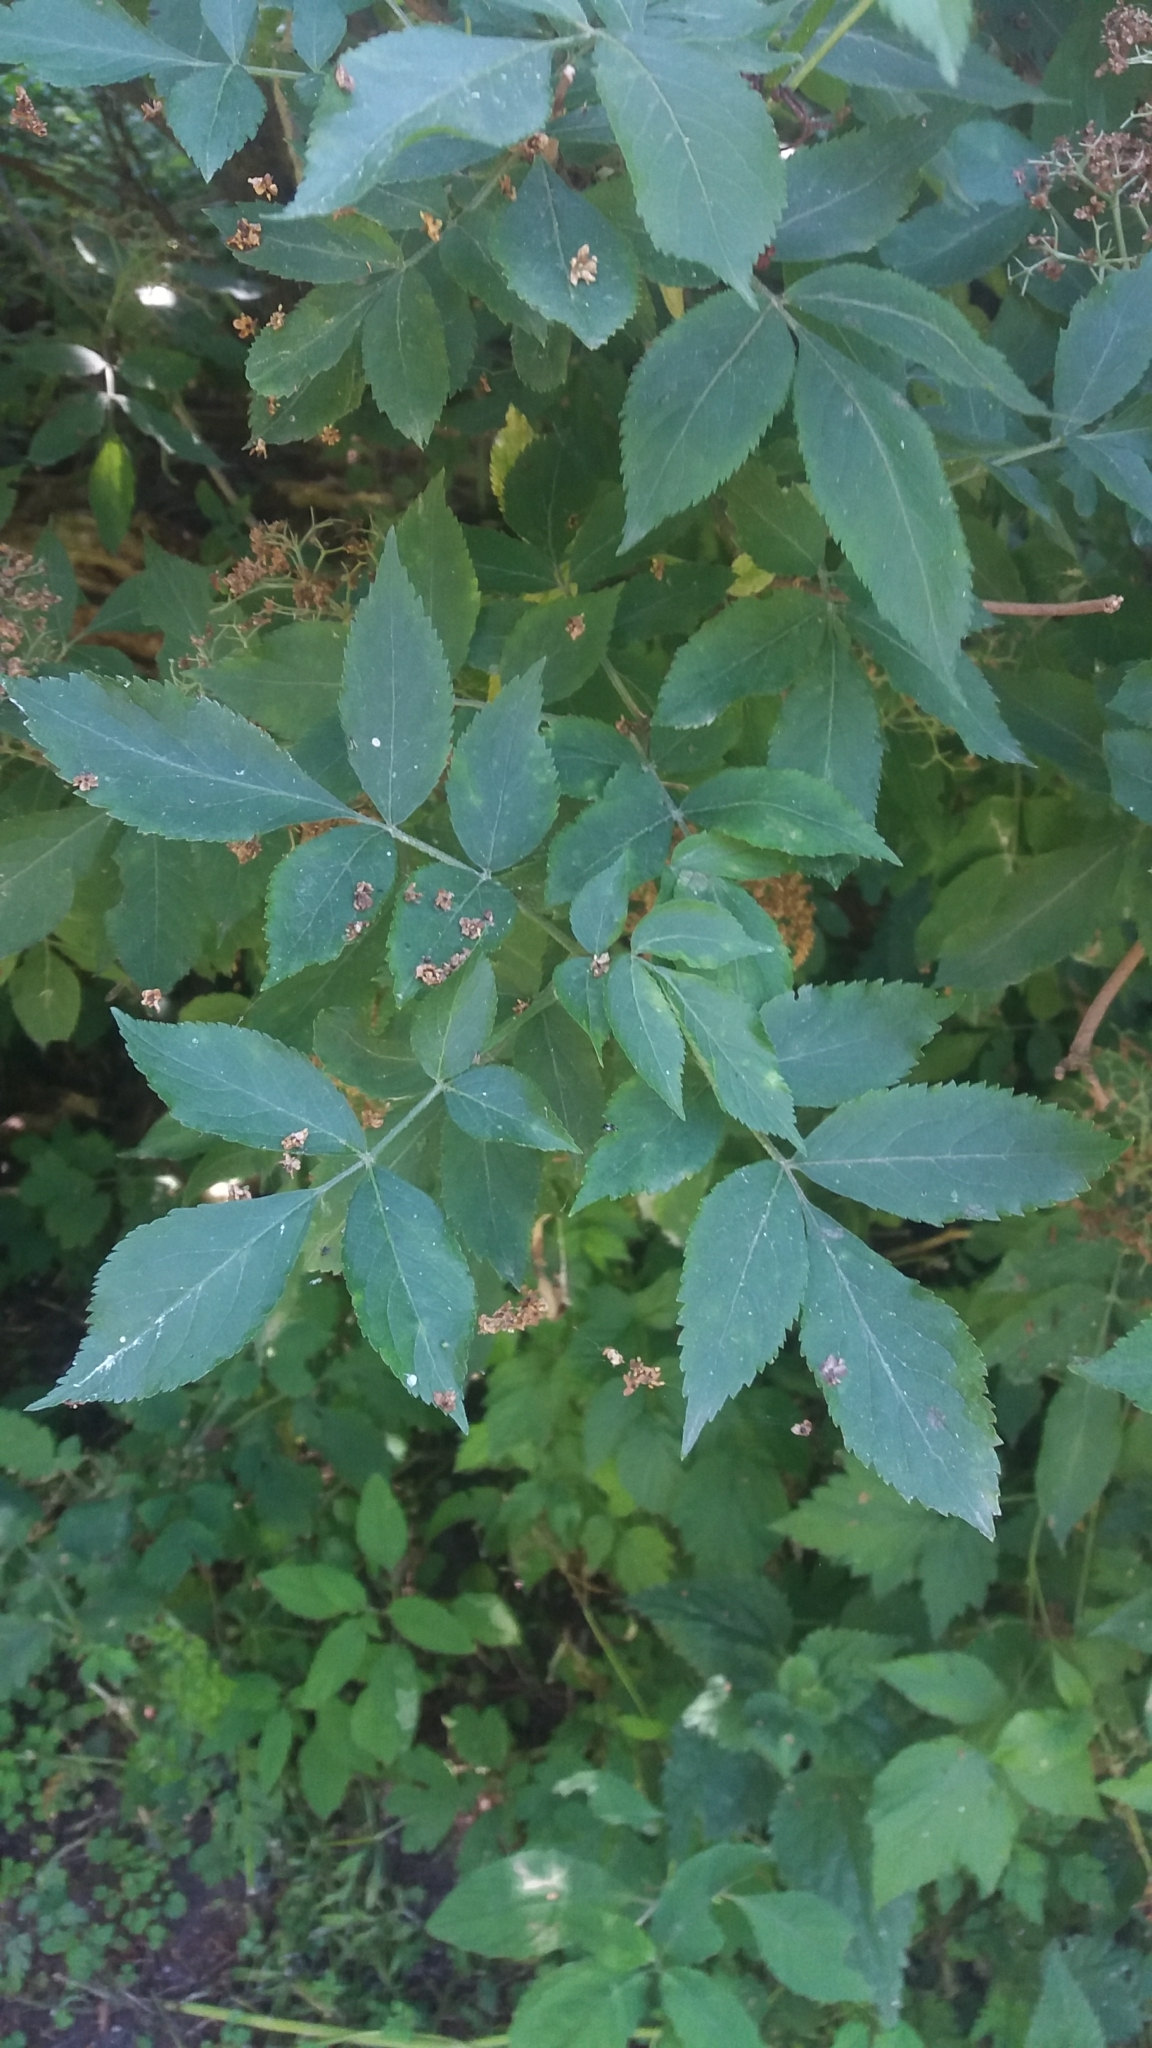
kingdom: Plantae
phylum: Tracheophyta
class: Magnoliopsida
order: Dipsacales
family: Viburnaceae
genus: Sambucus
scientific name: Sambucus nigra
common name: Elder
